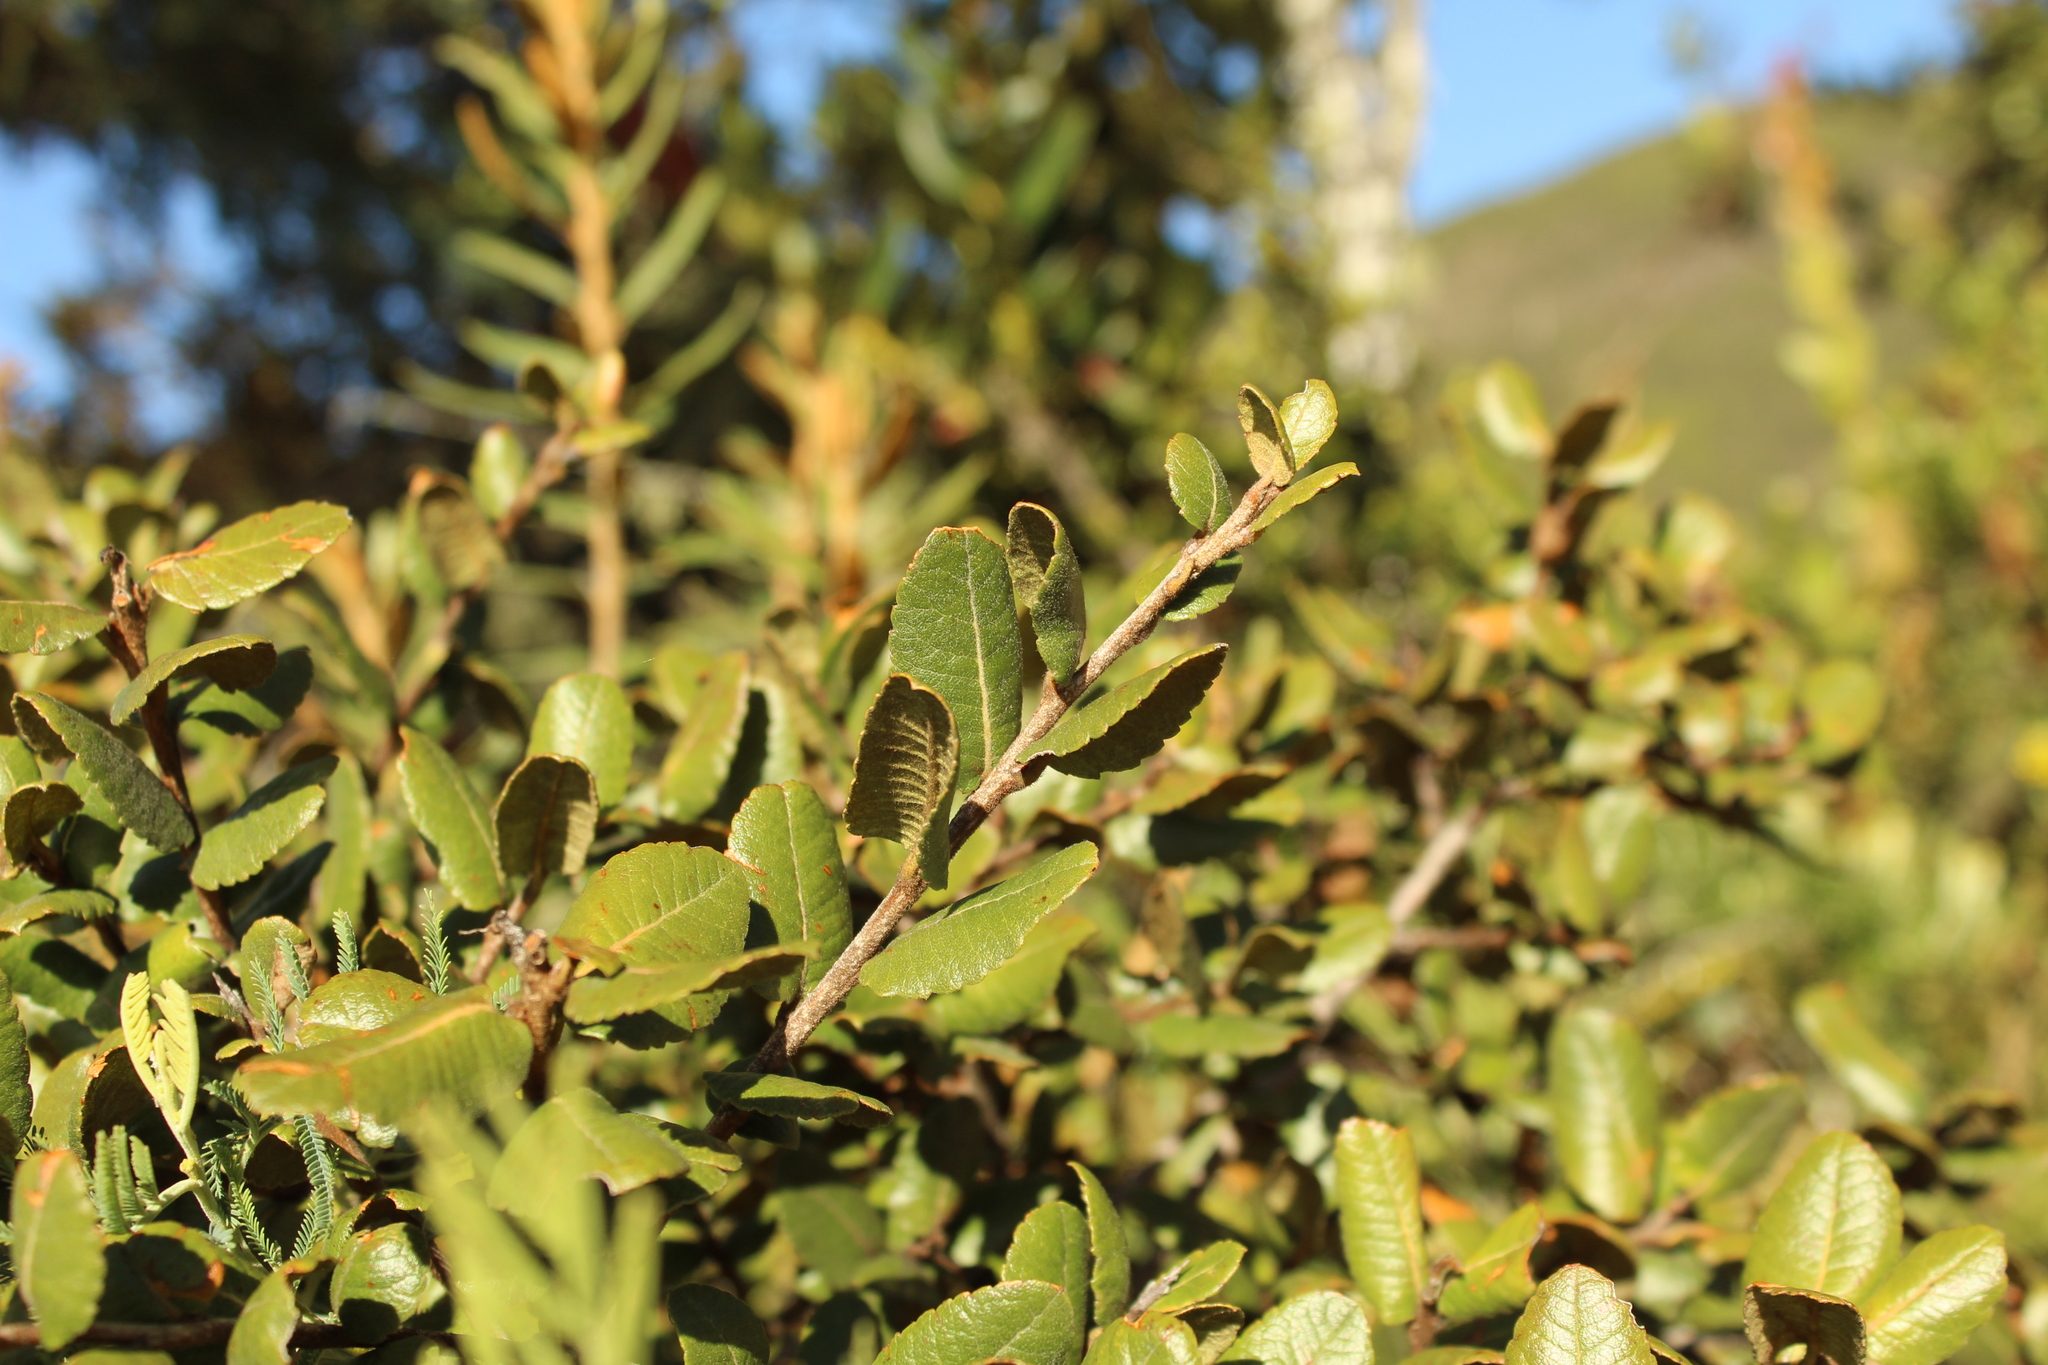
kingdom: Plantae
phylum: Tracheophyta
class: Magnoliopsida
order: Rosales
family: Rosaceae
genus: Hesperomeles
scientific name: Hesperomeles goudotiana
